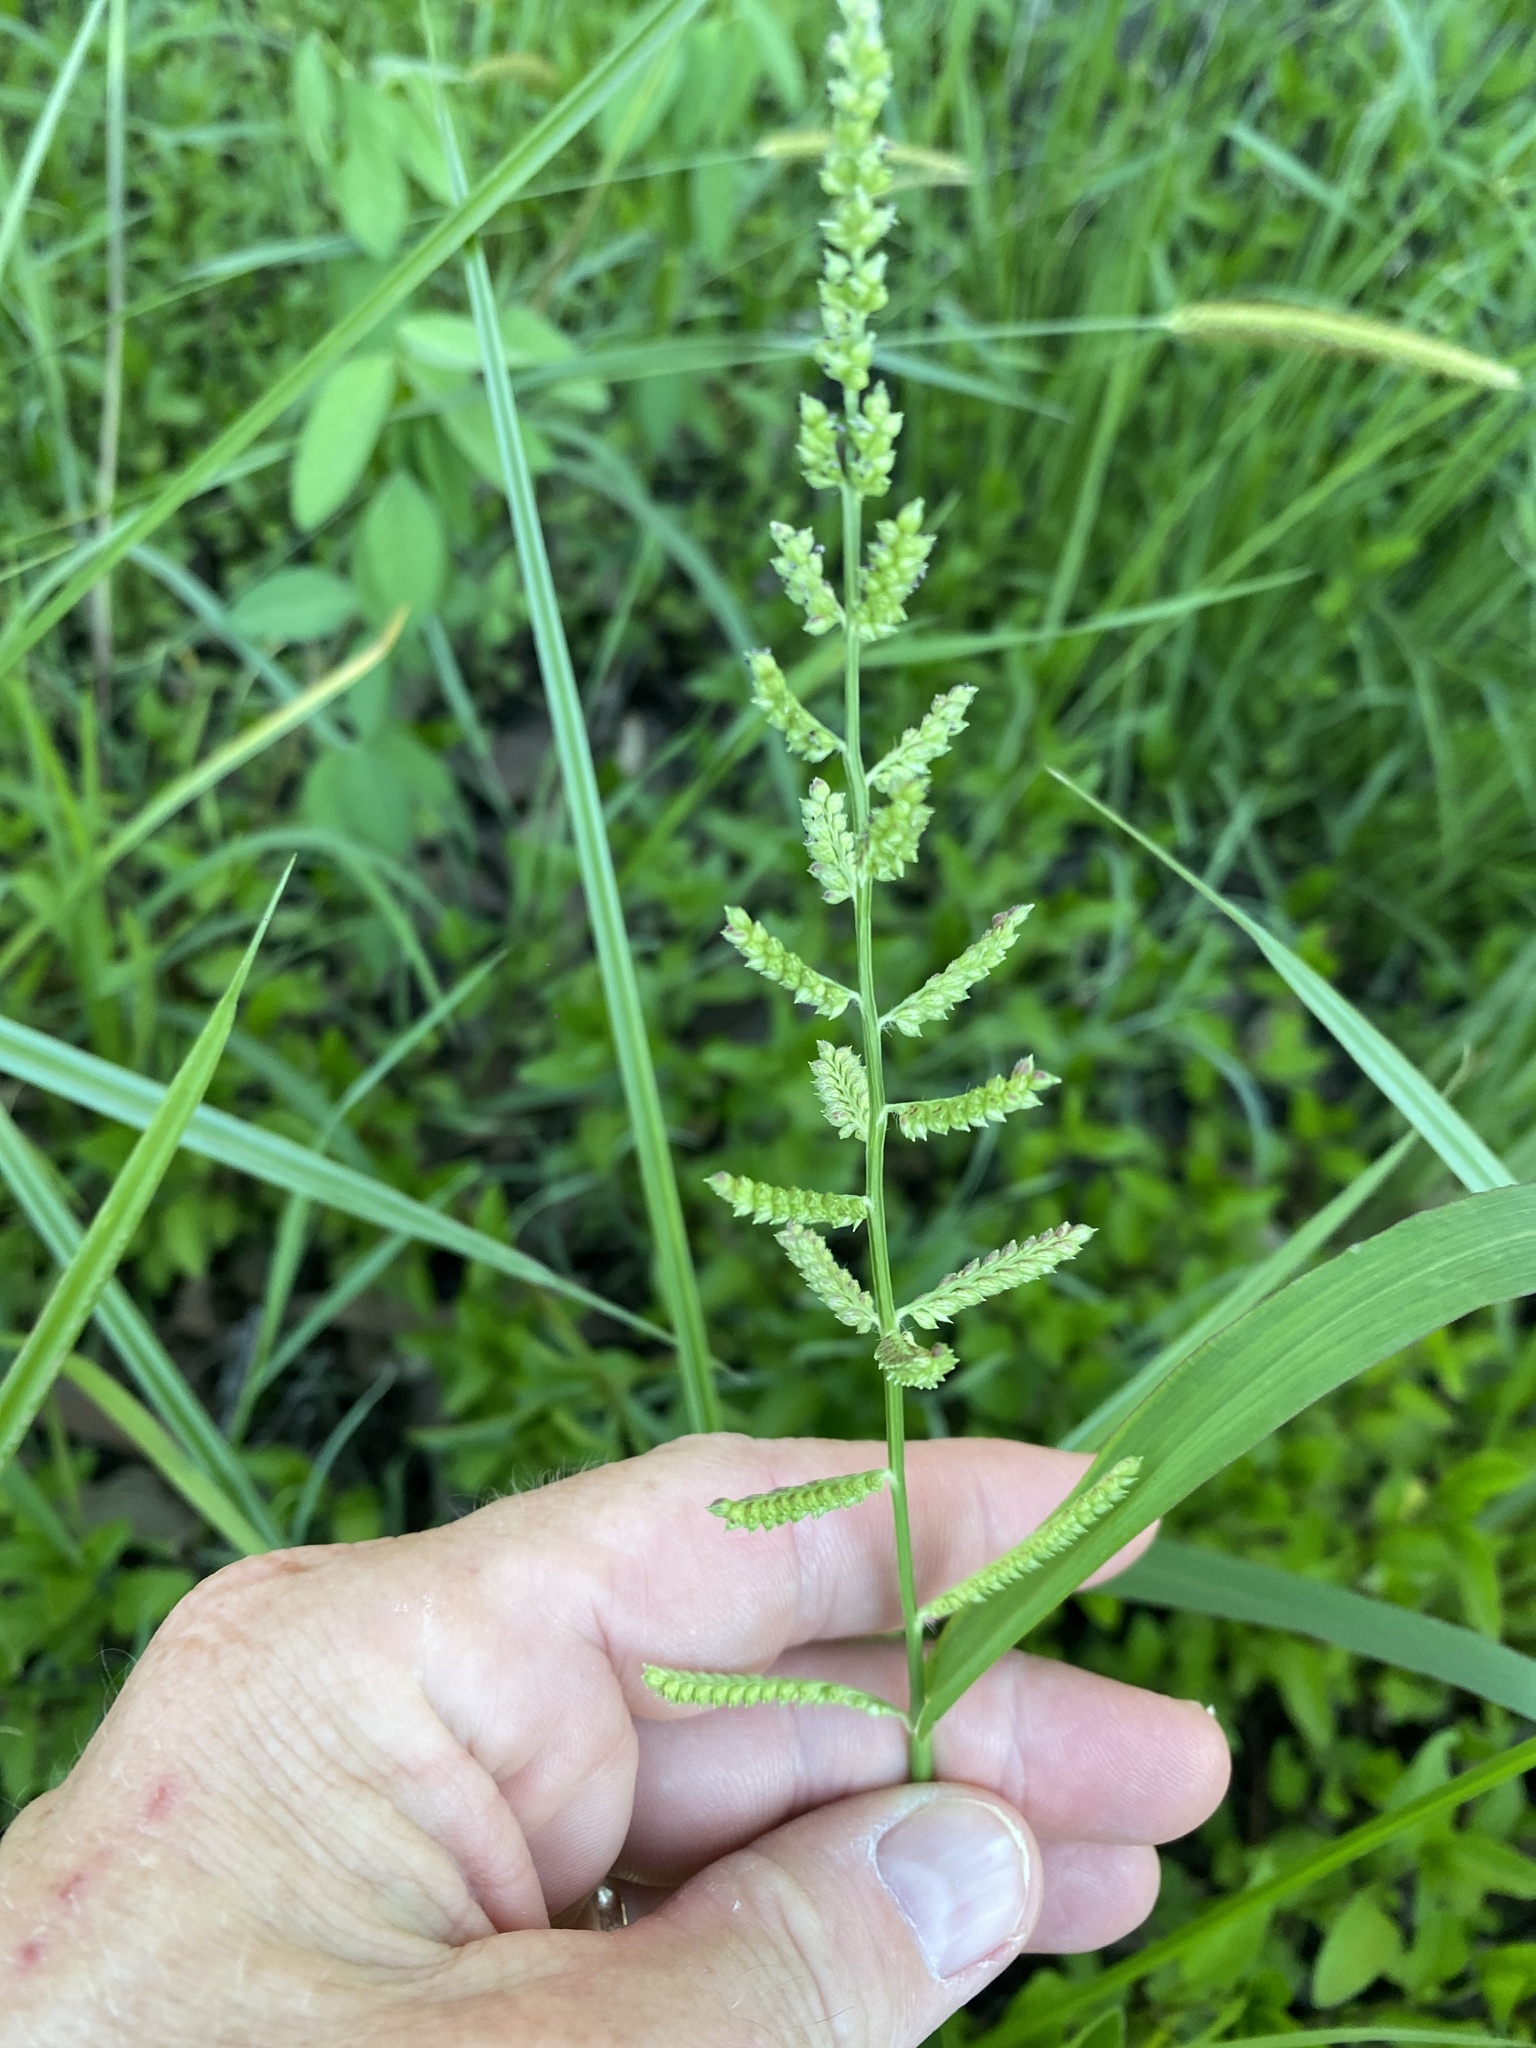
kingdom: Plantae
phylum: Tracheophyta
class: Liliopsida
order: Poales
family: Poaceae
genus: Echinochloa
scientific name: Echinochloa colonum
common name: Jungle rice
